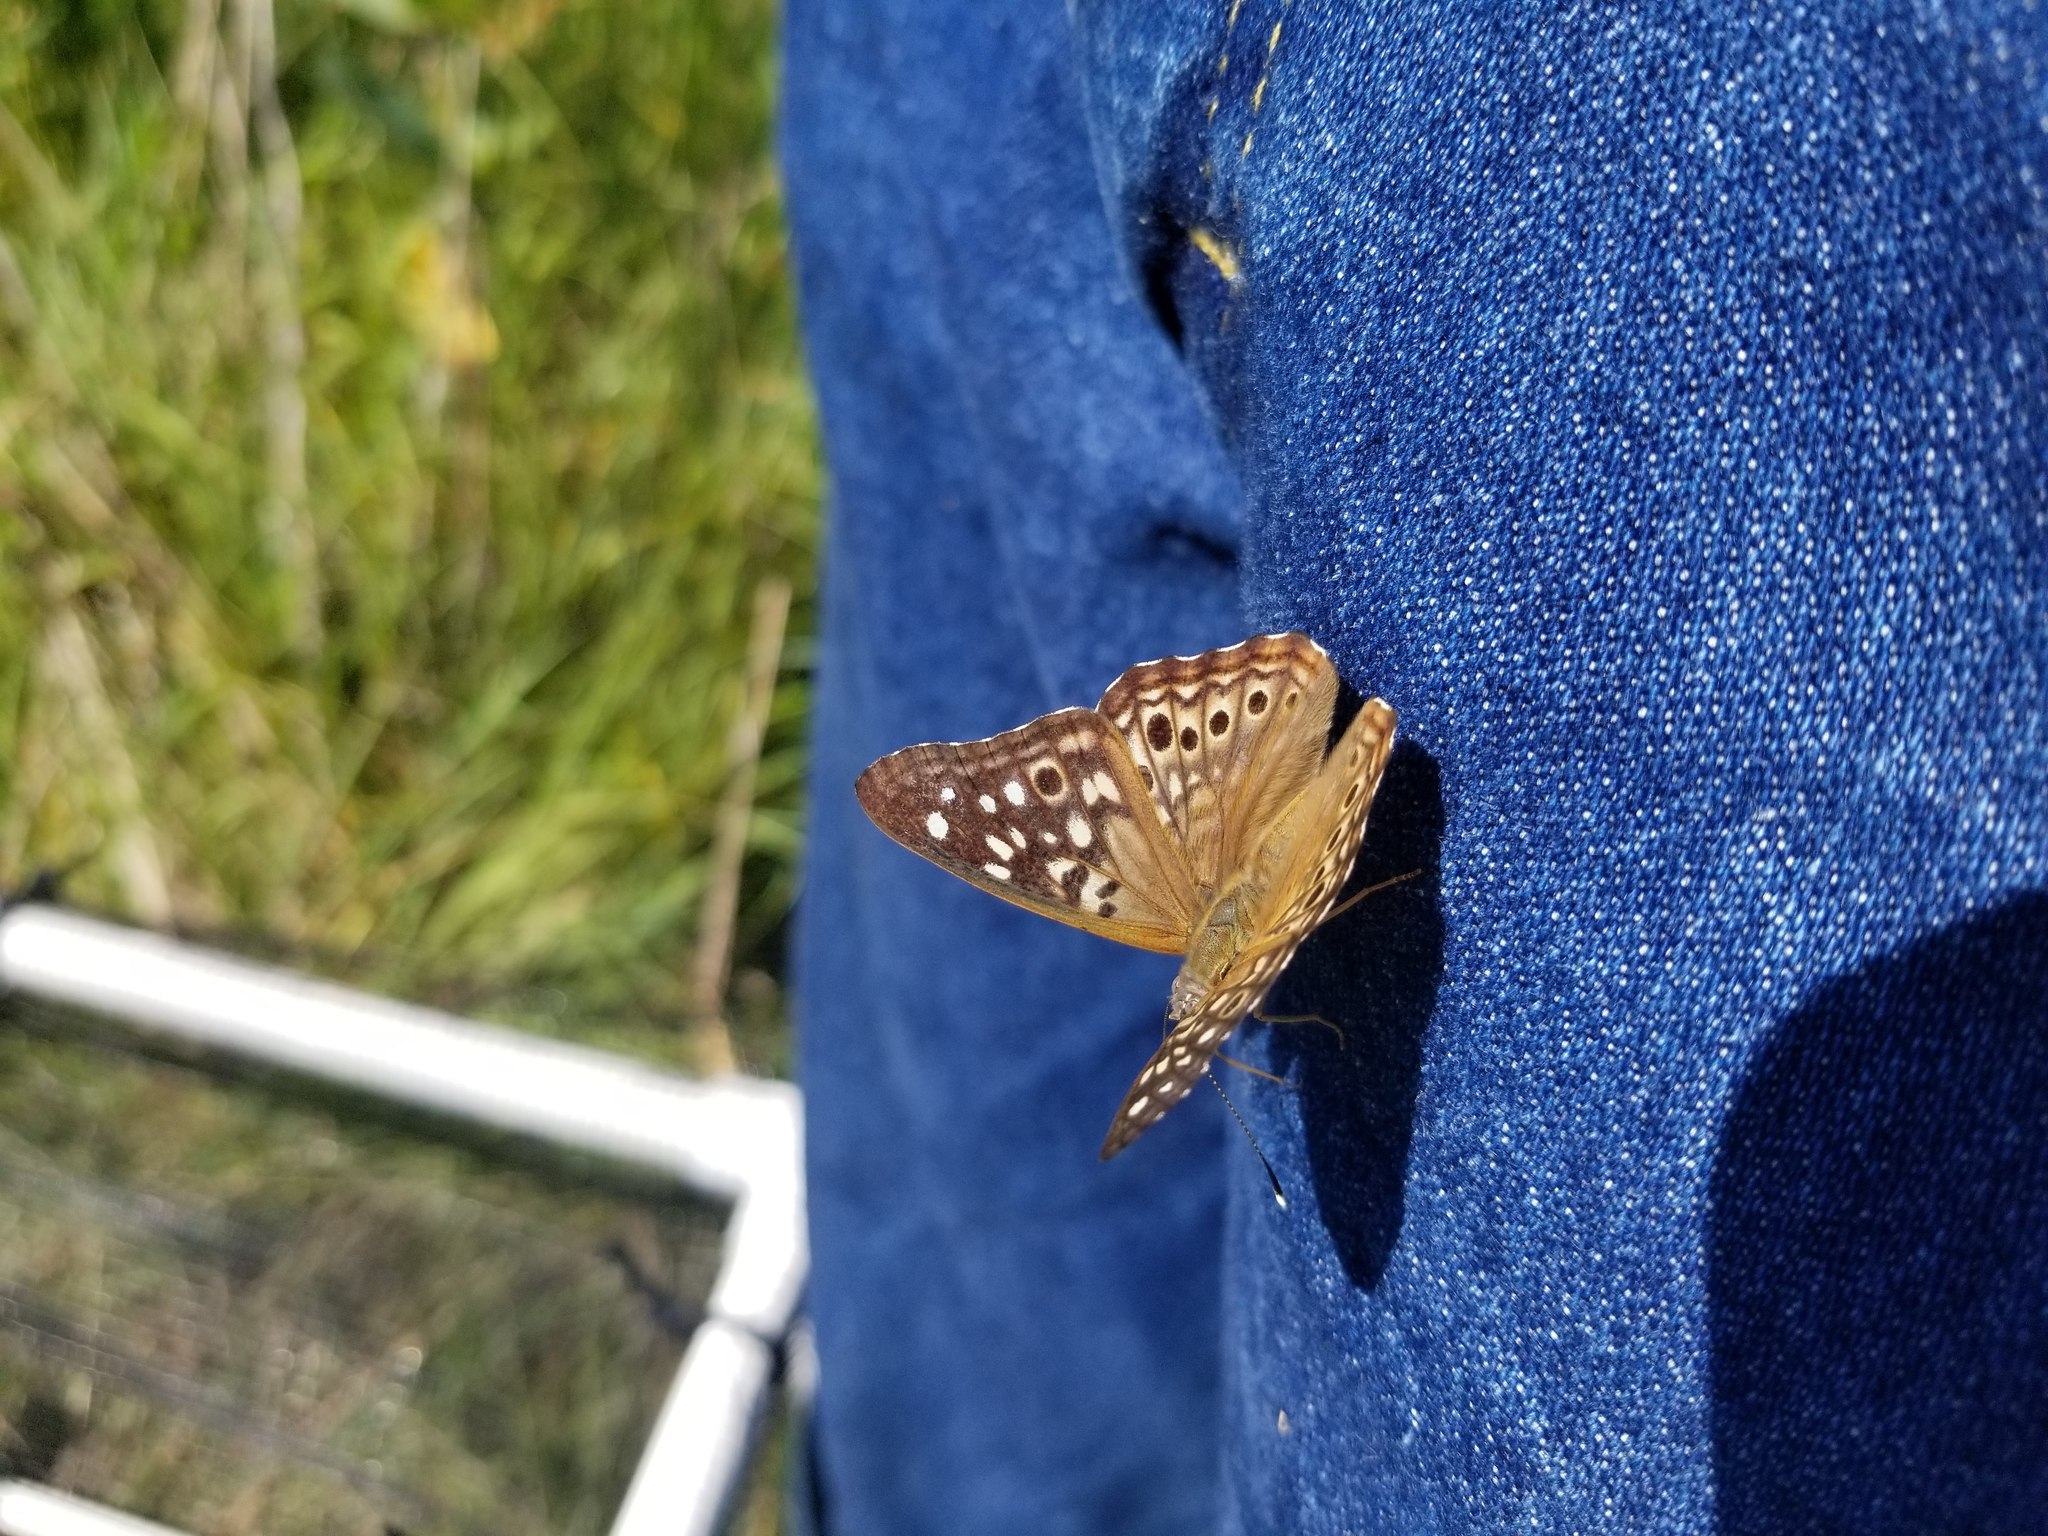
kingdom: Animalia
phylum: Arthropoda
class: Insecta
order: Lepidoptera
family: Nymphalidae
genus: Asterocampa
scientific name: Asterocampa celtis
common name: Hackberry emperor
